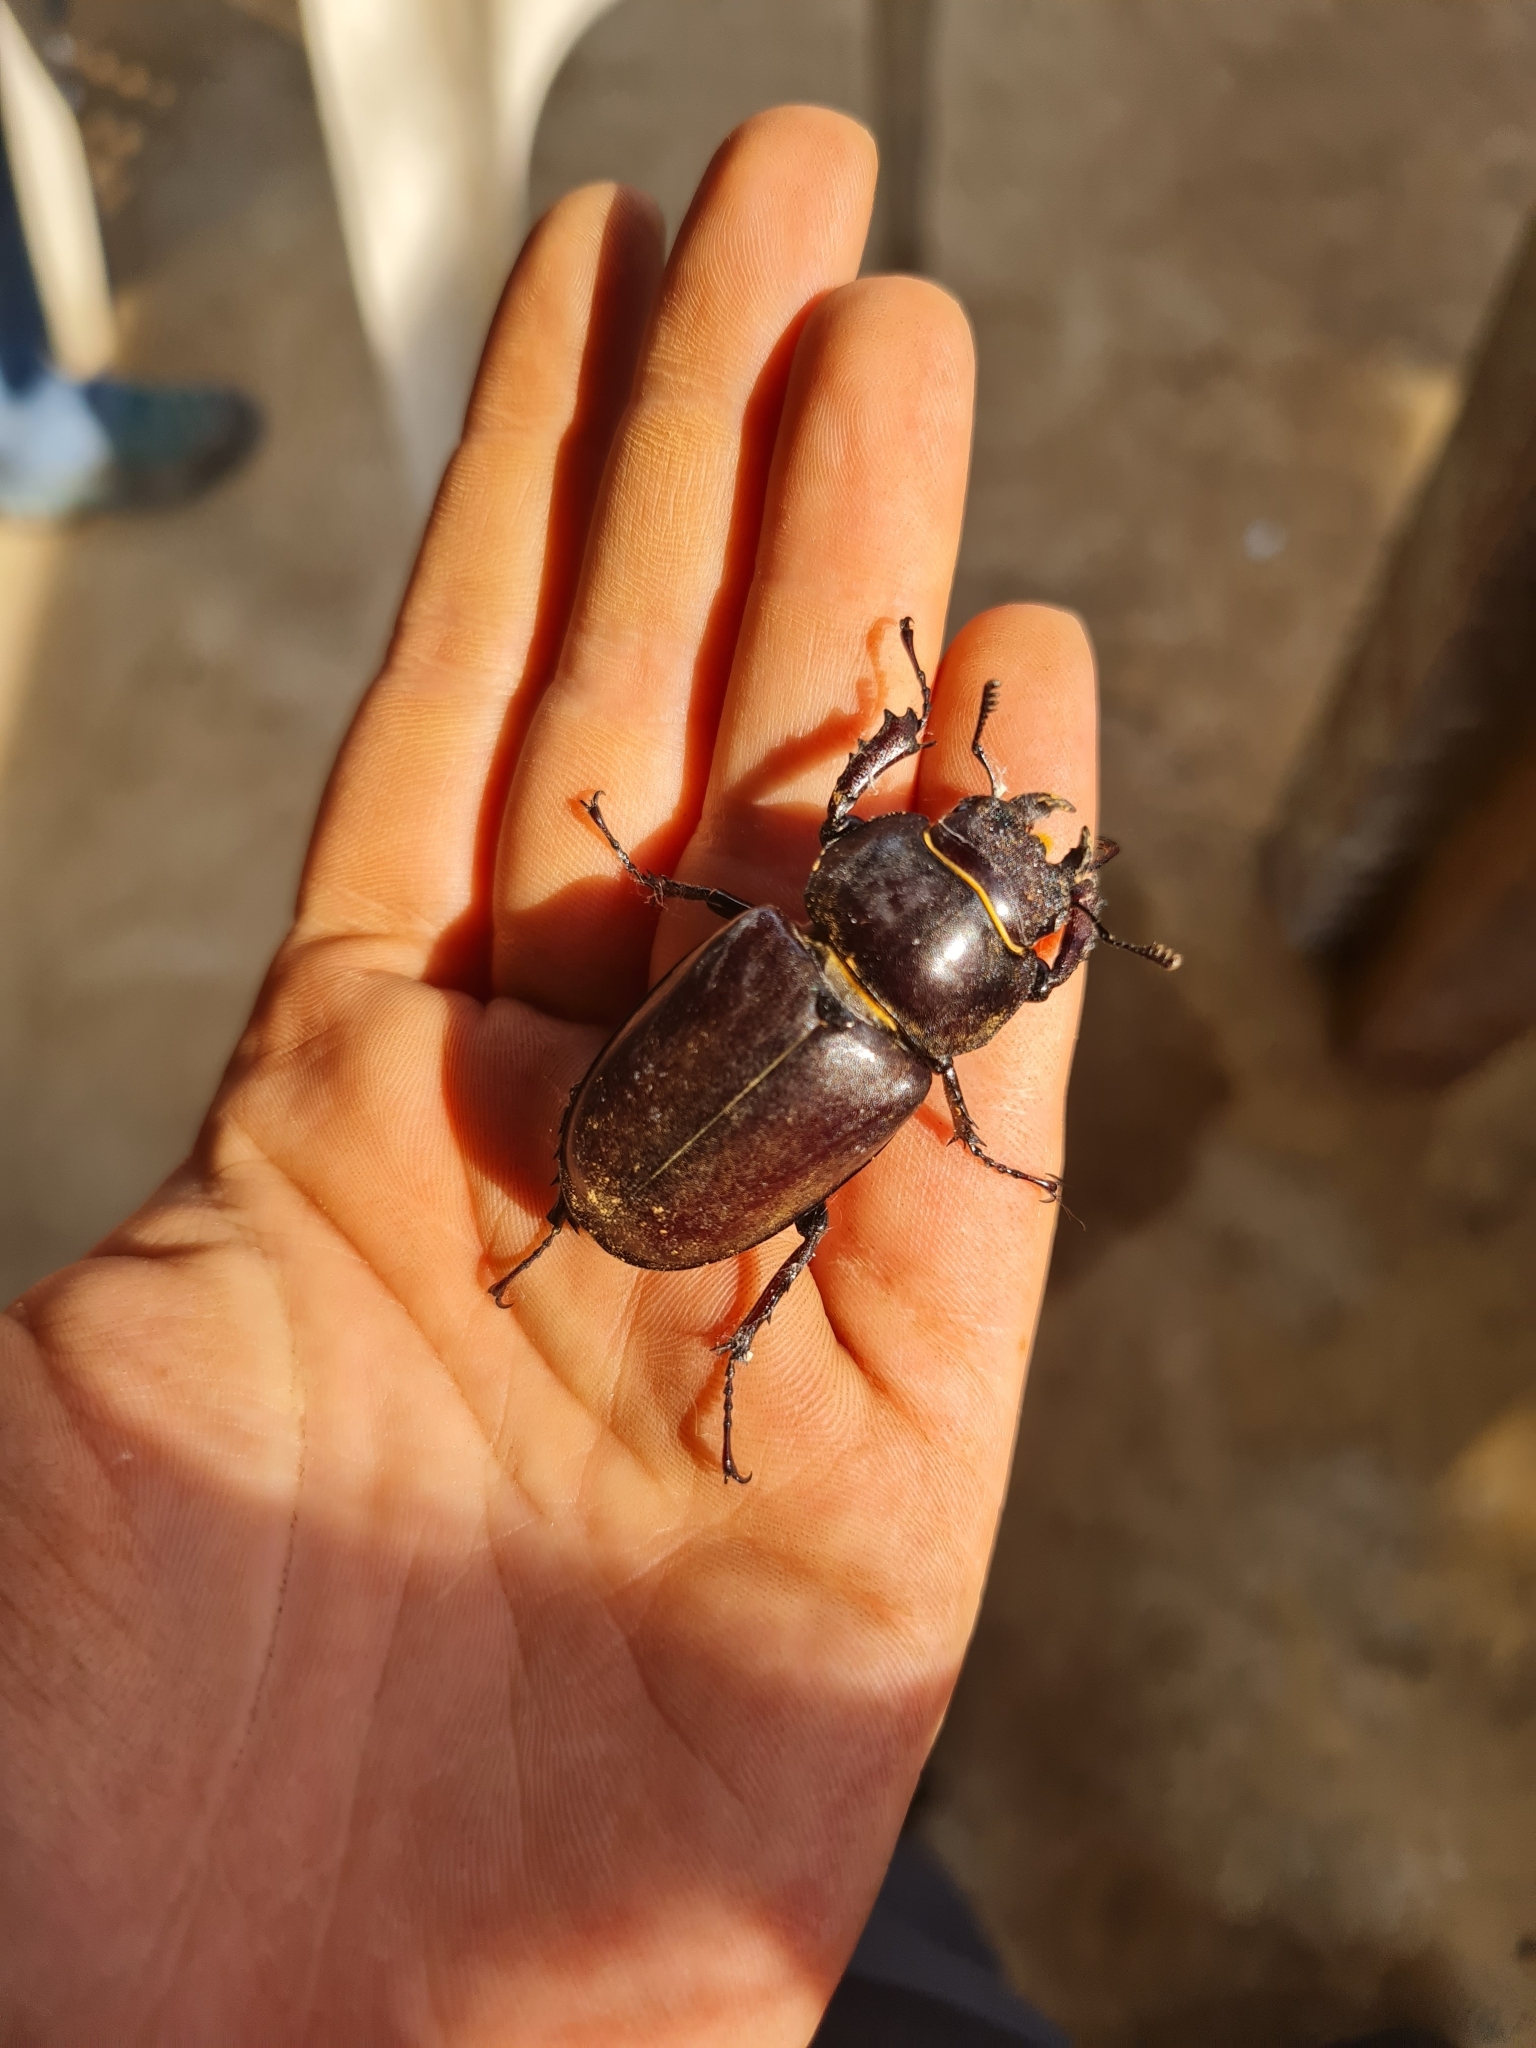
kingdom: Animalia
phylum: Arthropoda
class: Insecta
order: Coleoptera
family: Lucanidae
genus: Lucanus
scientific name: Lucanus cervus
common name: Stag beetle
